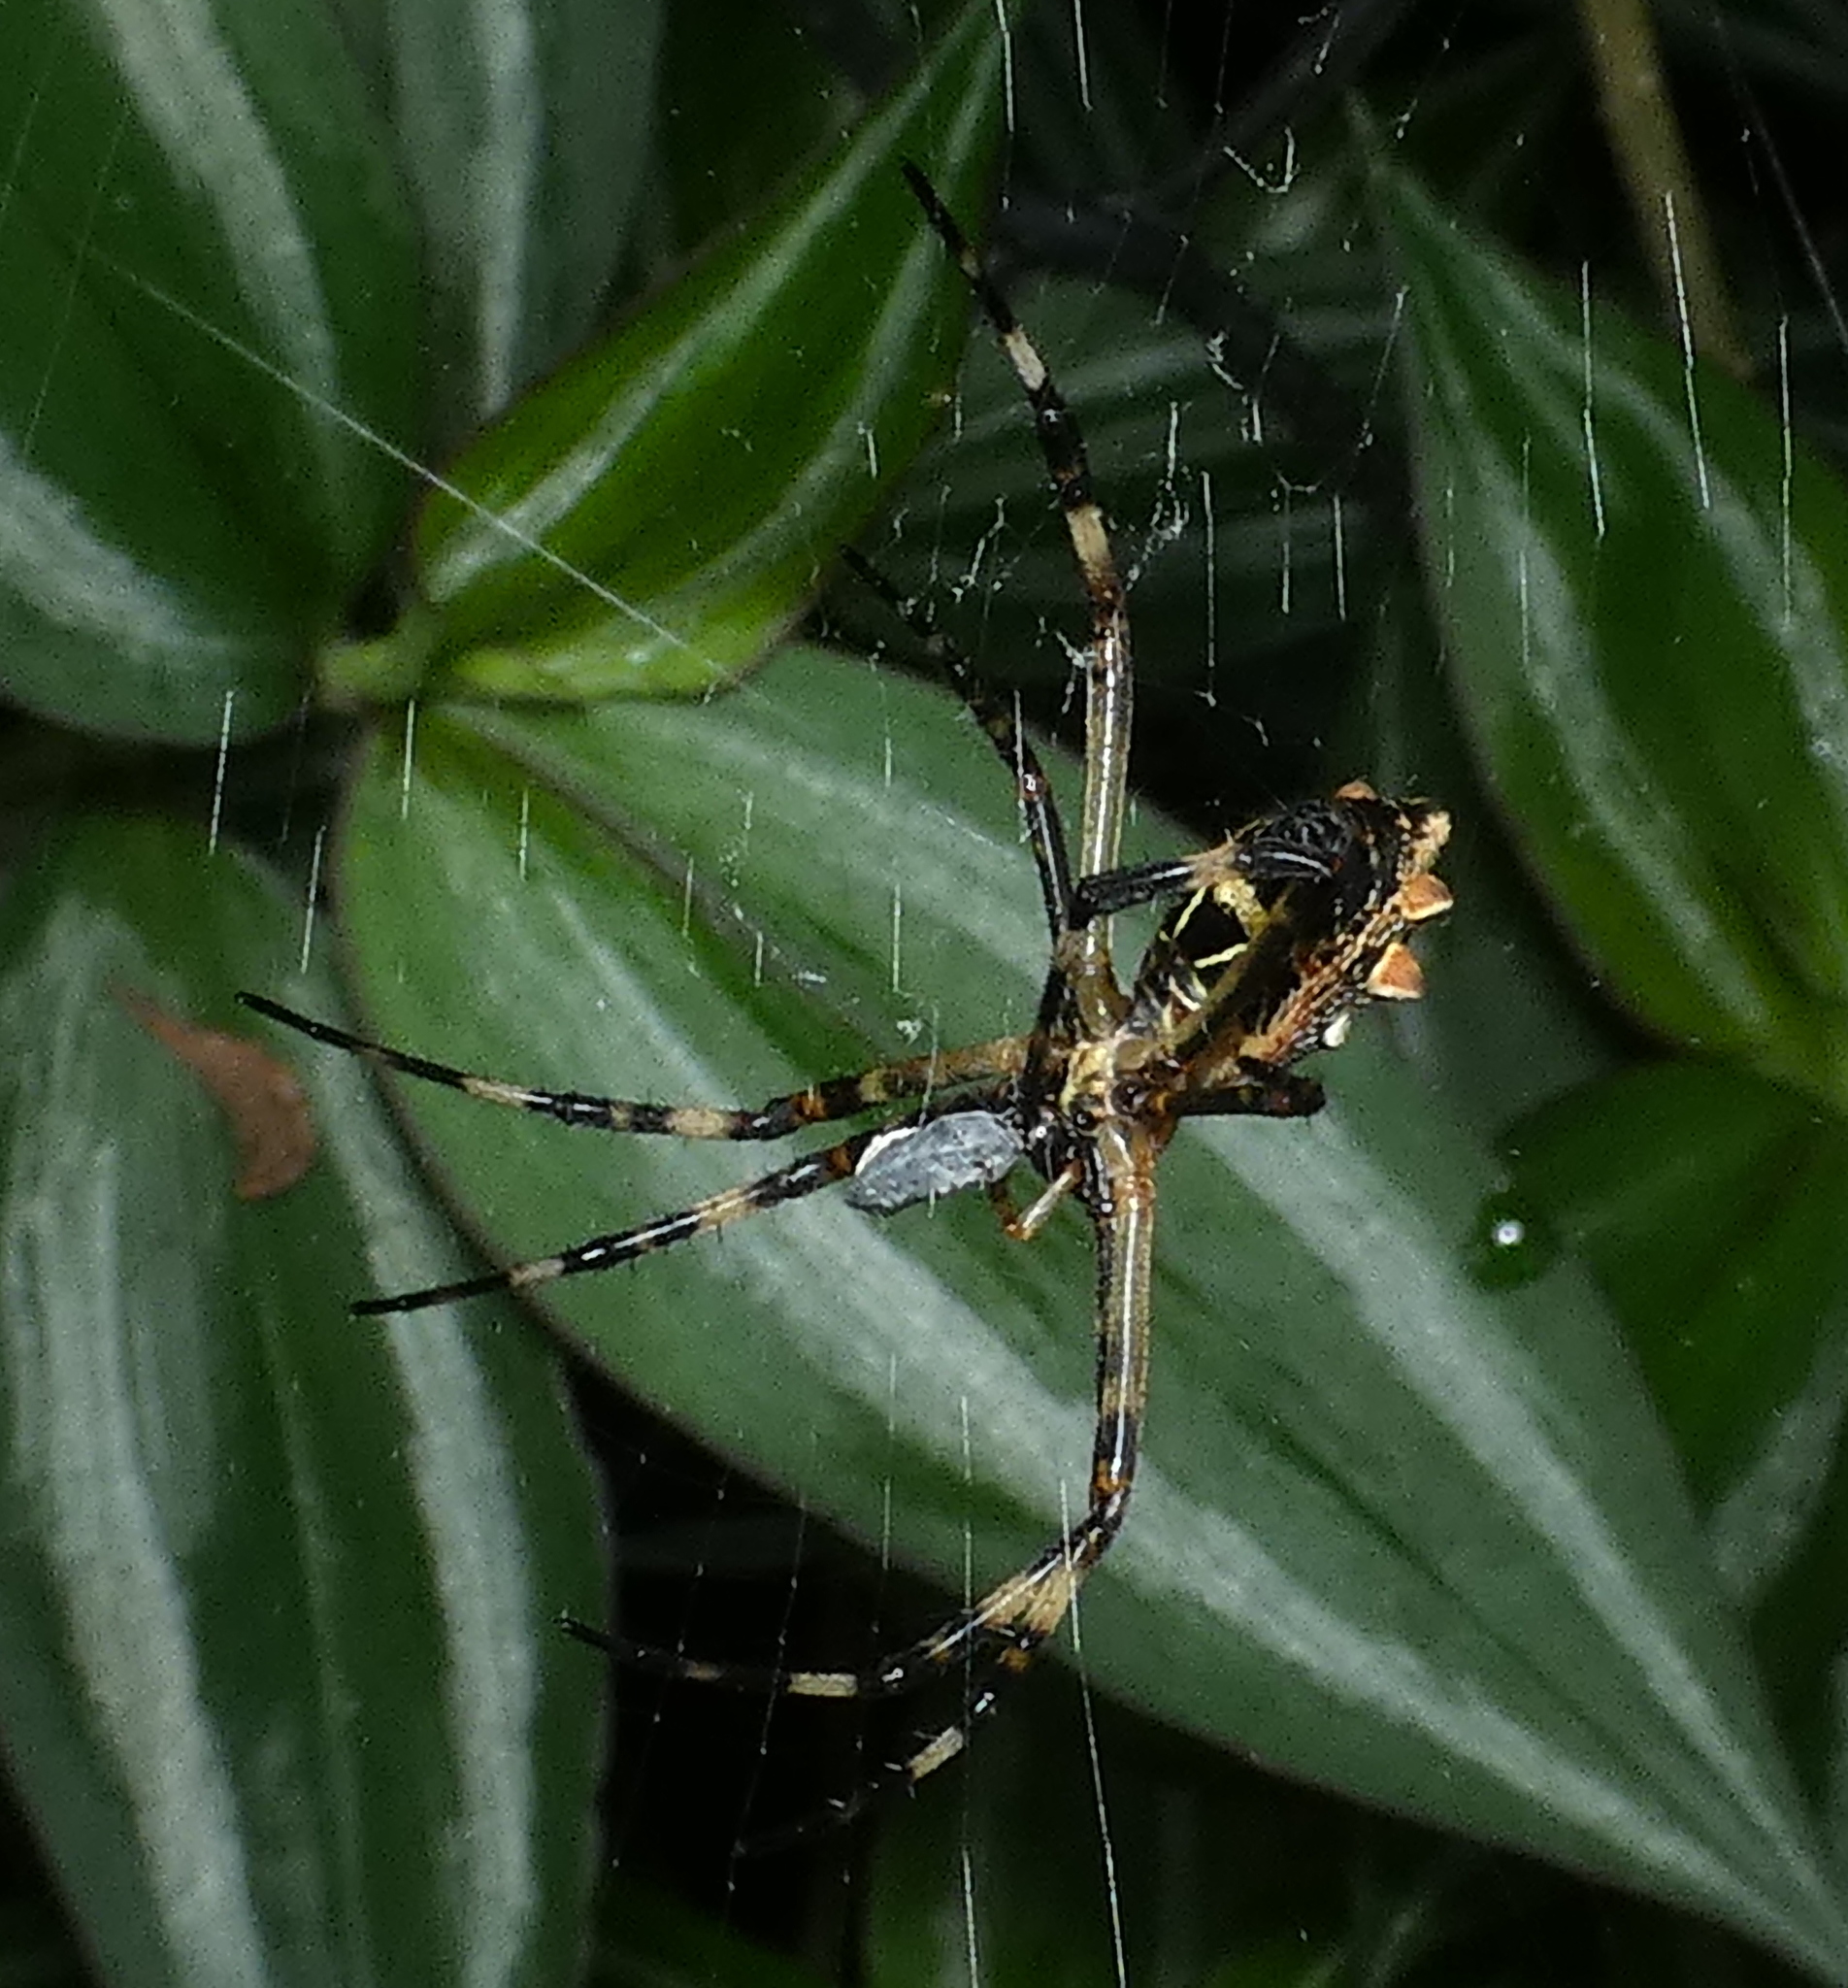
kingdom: Animalia
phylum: Arthropoda
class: Arachnida
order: Araneae
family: Araneidae
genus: Argiope
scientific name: Argiope argentata
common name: Orb weavers
